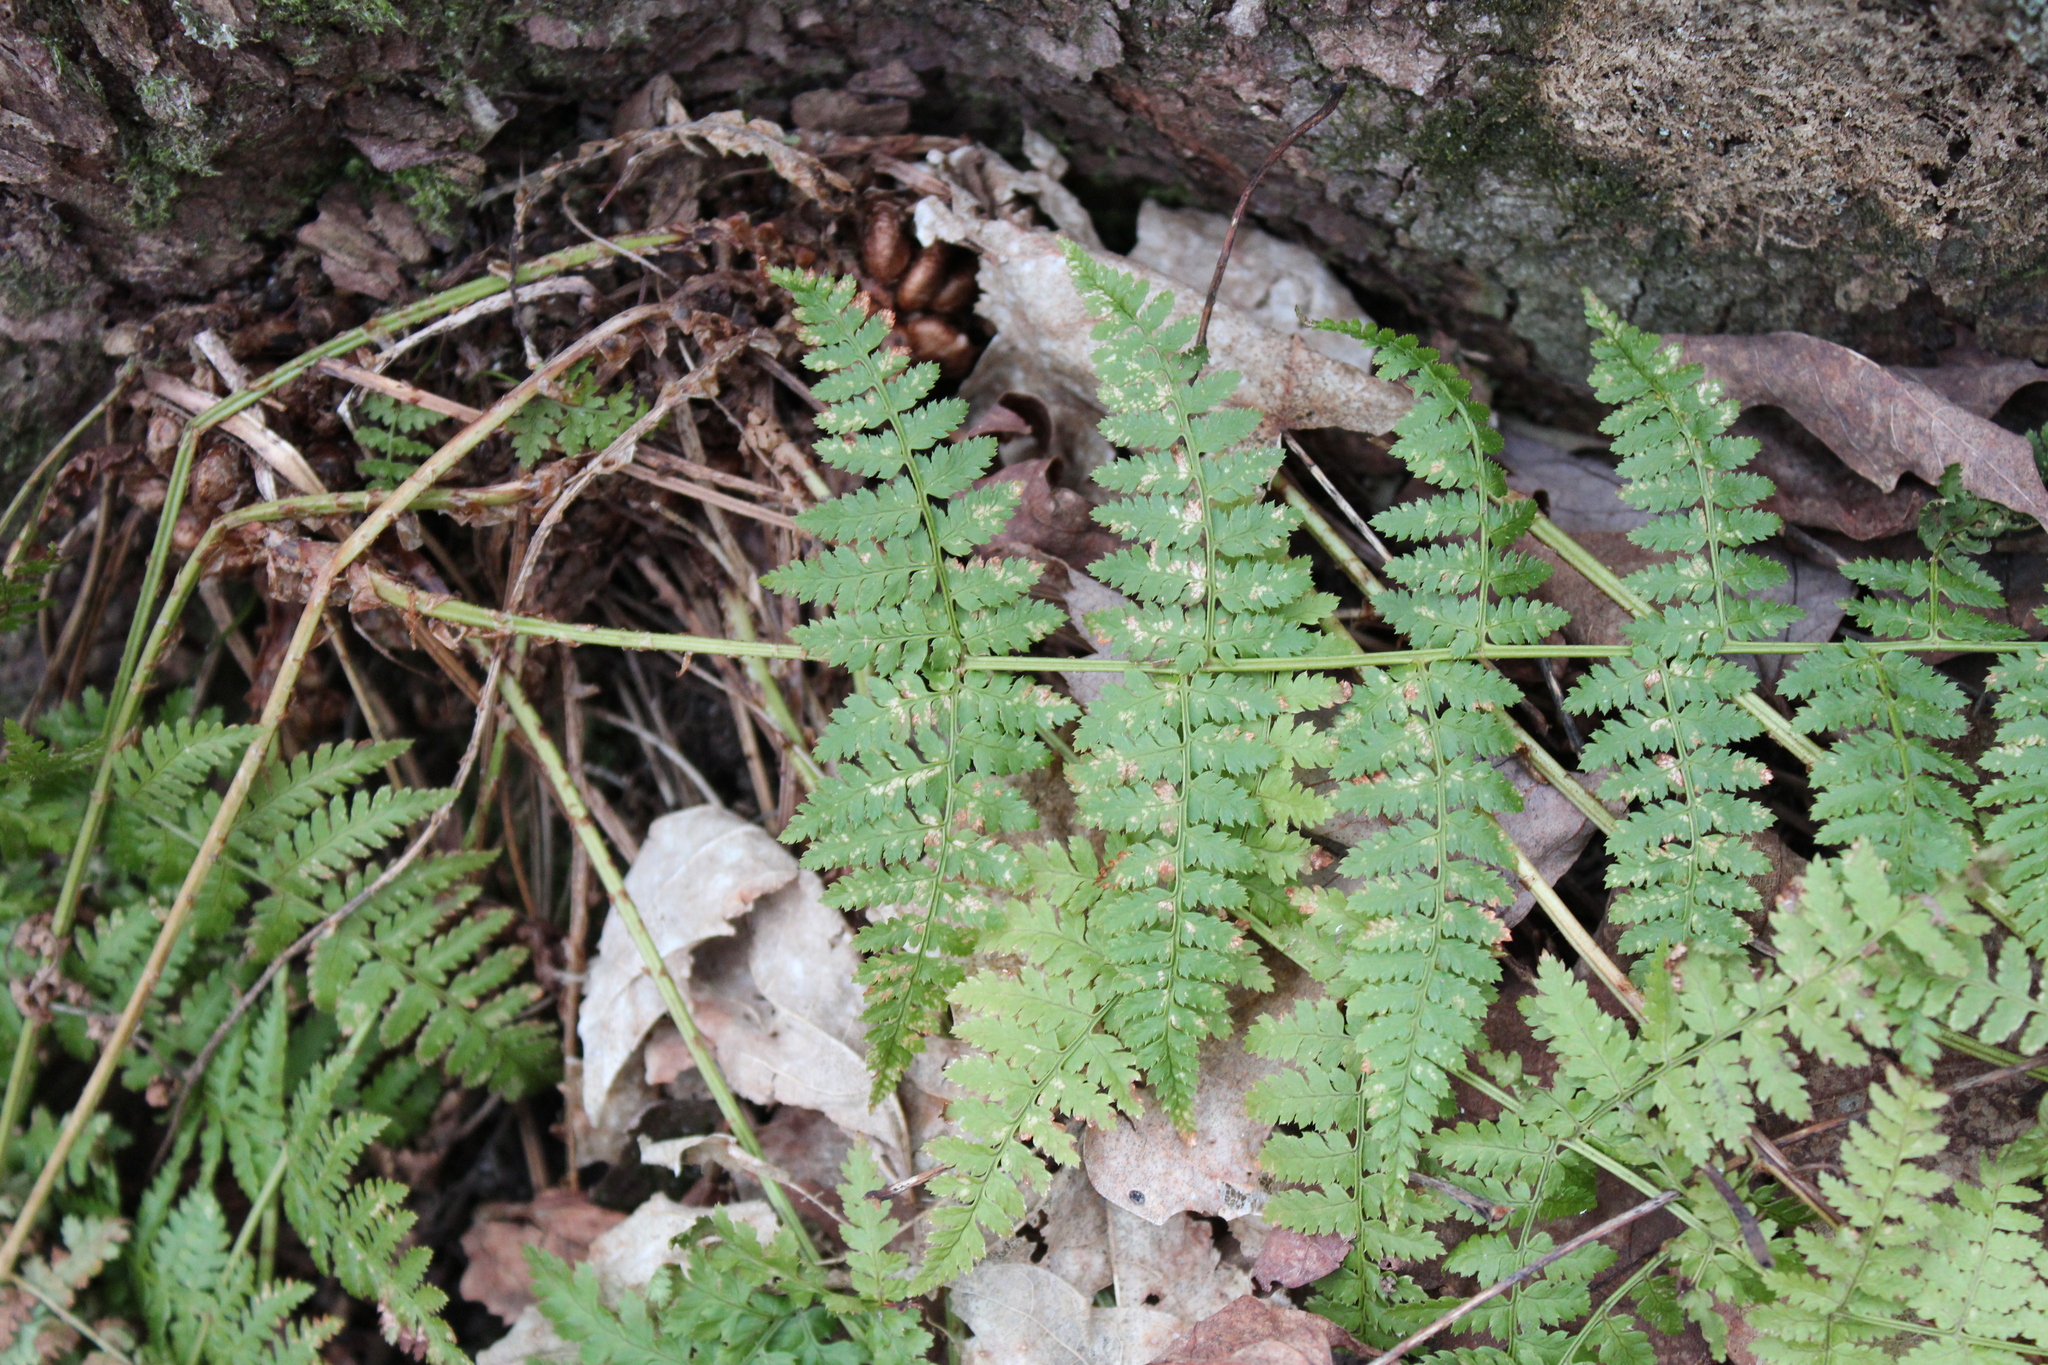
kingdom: Plantae
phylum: Tracheophyta
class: Polypodiopsida
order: Polypodiales
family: Dryopteridaceae
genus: Dryopteris
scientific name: Dryopteris intermedia
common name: Evergreen wood fern
